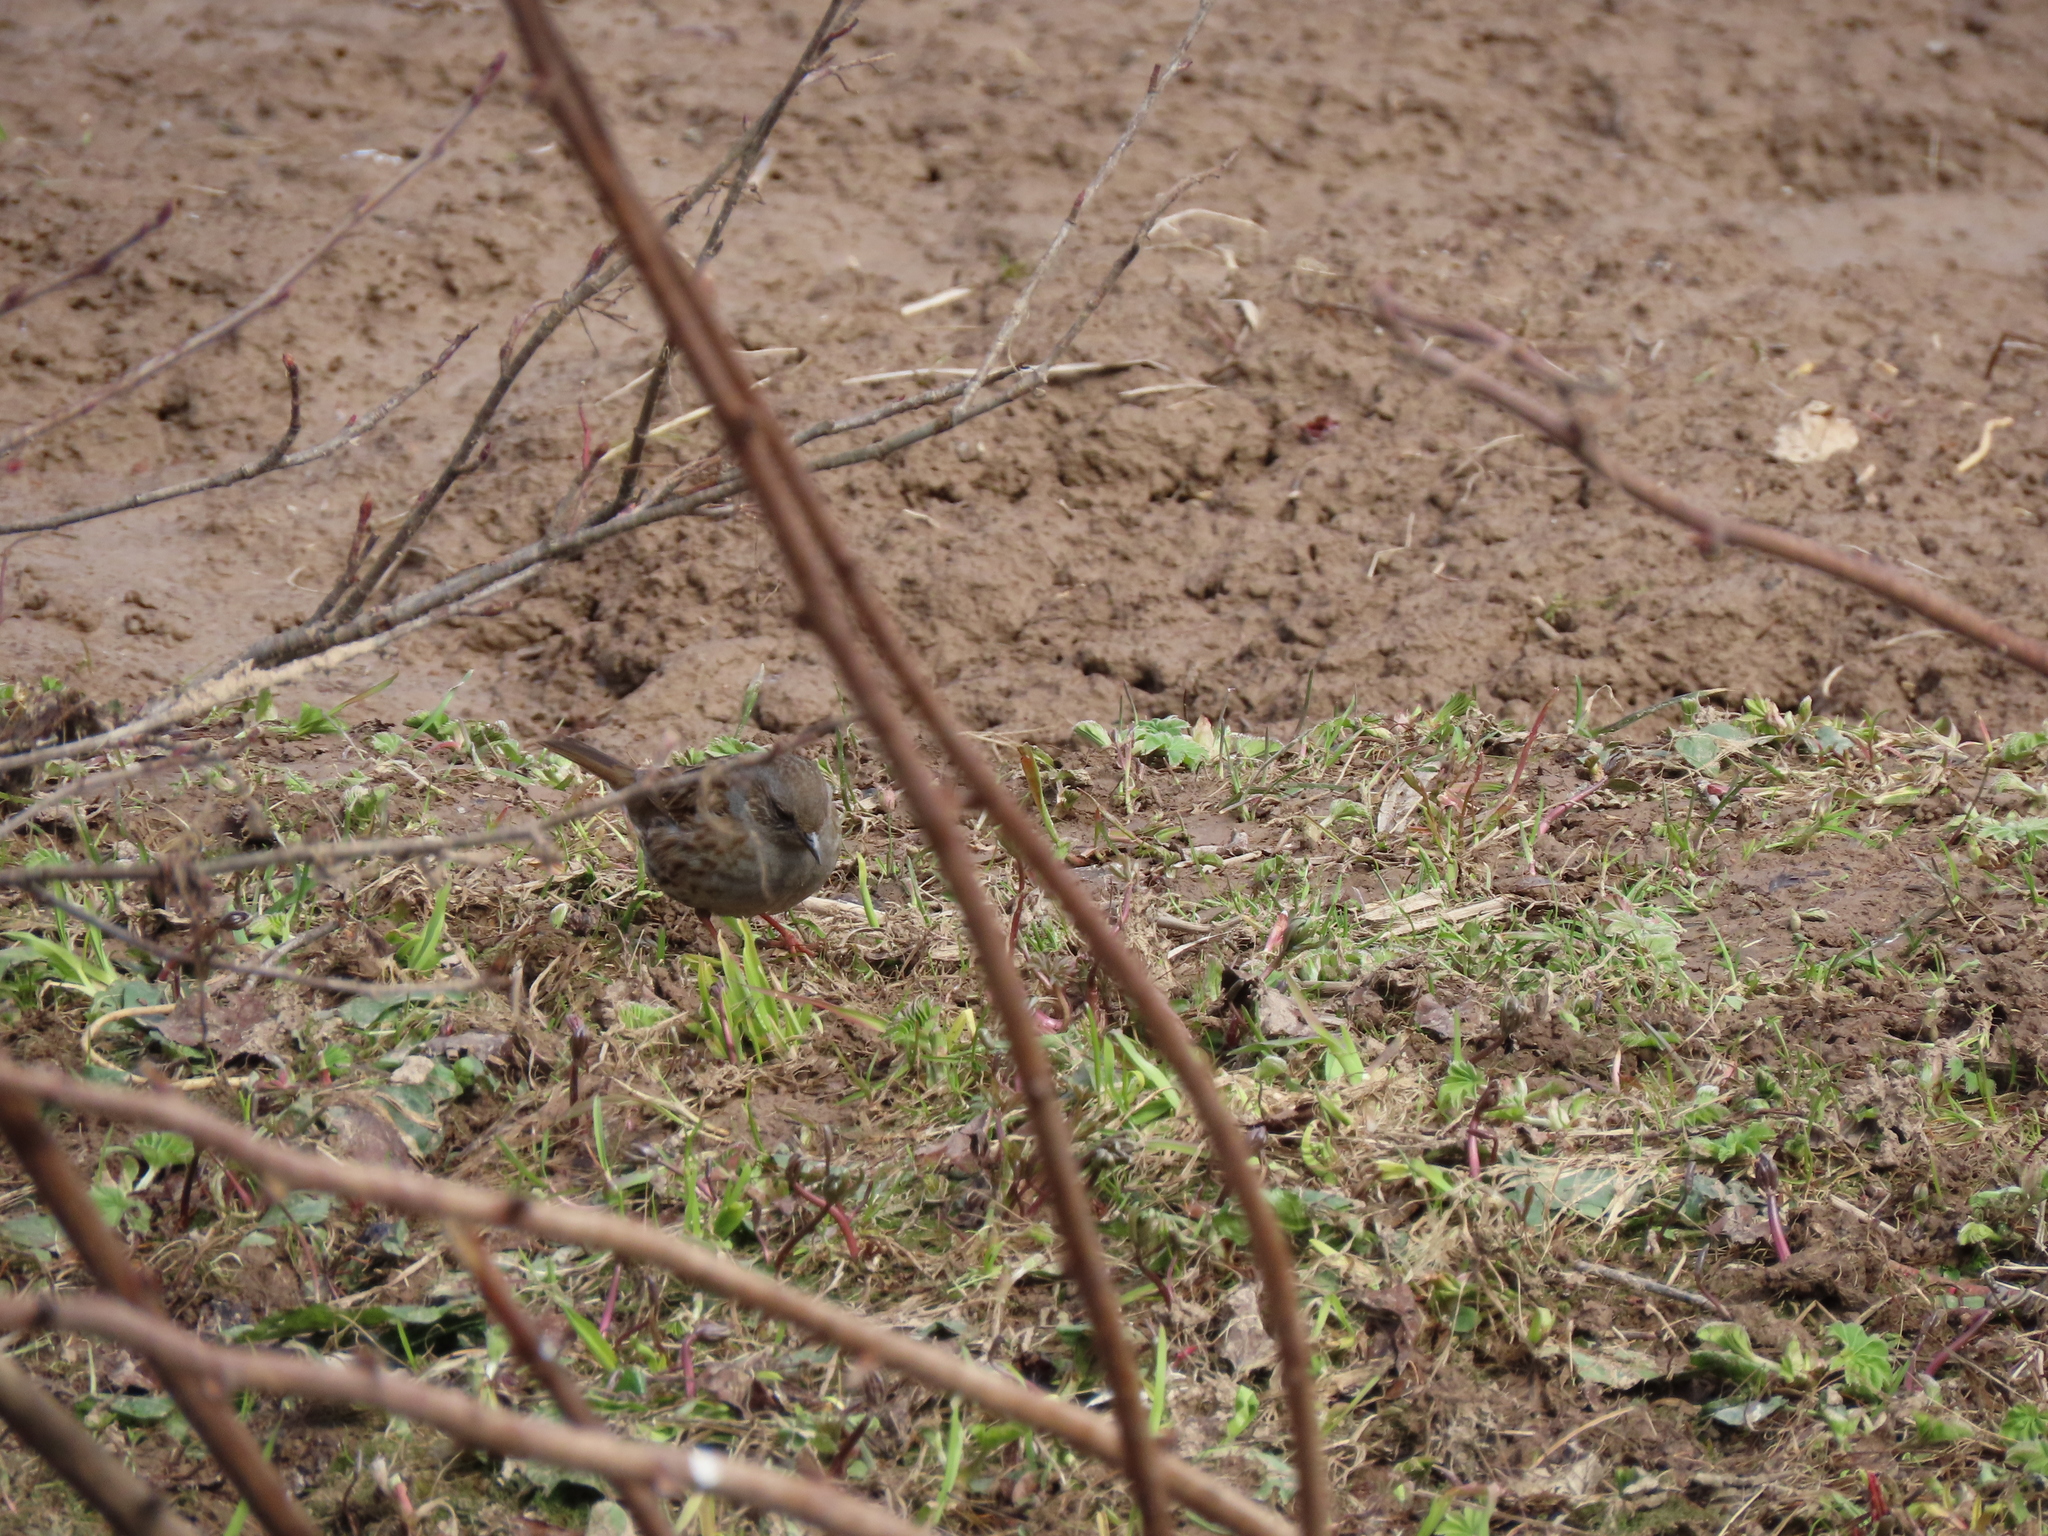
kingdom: Animalia
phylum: Chordata
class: Aves
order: Passeriformes
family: Prunellidae
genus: Prunella
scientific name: Prunella modularis
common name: Dunnock
